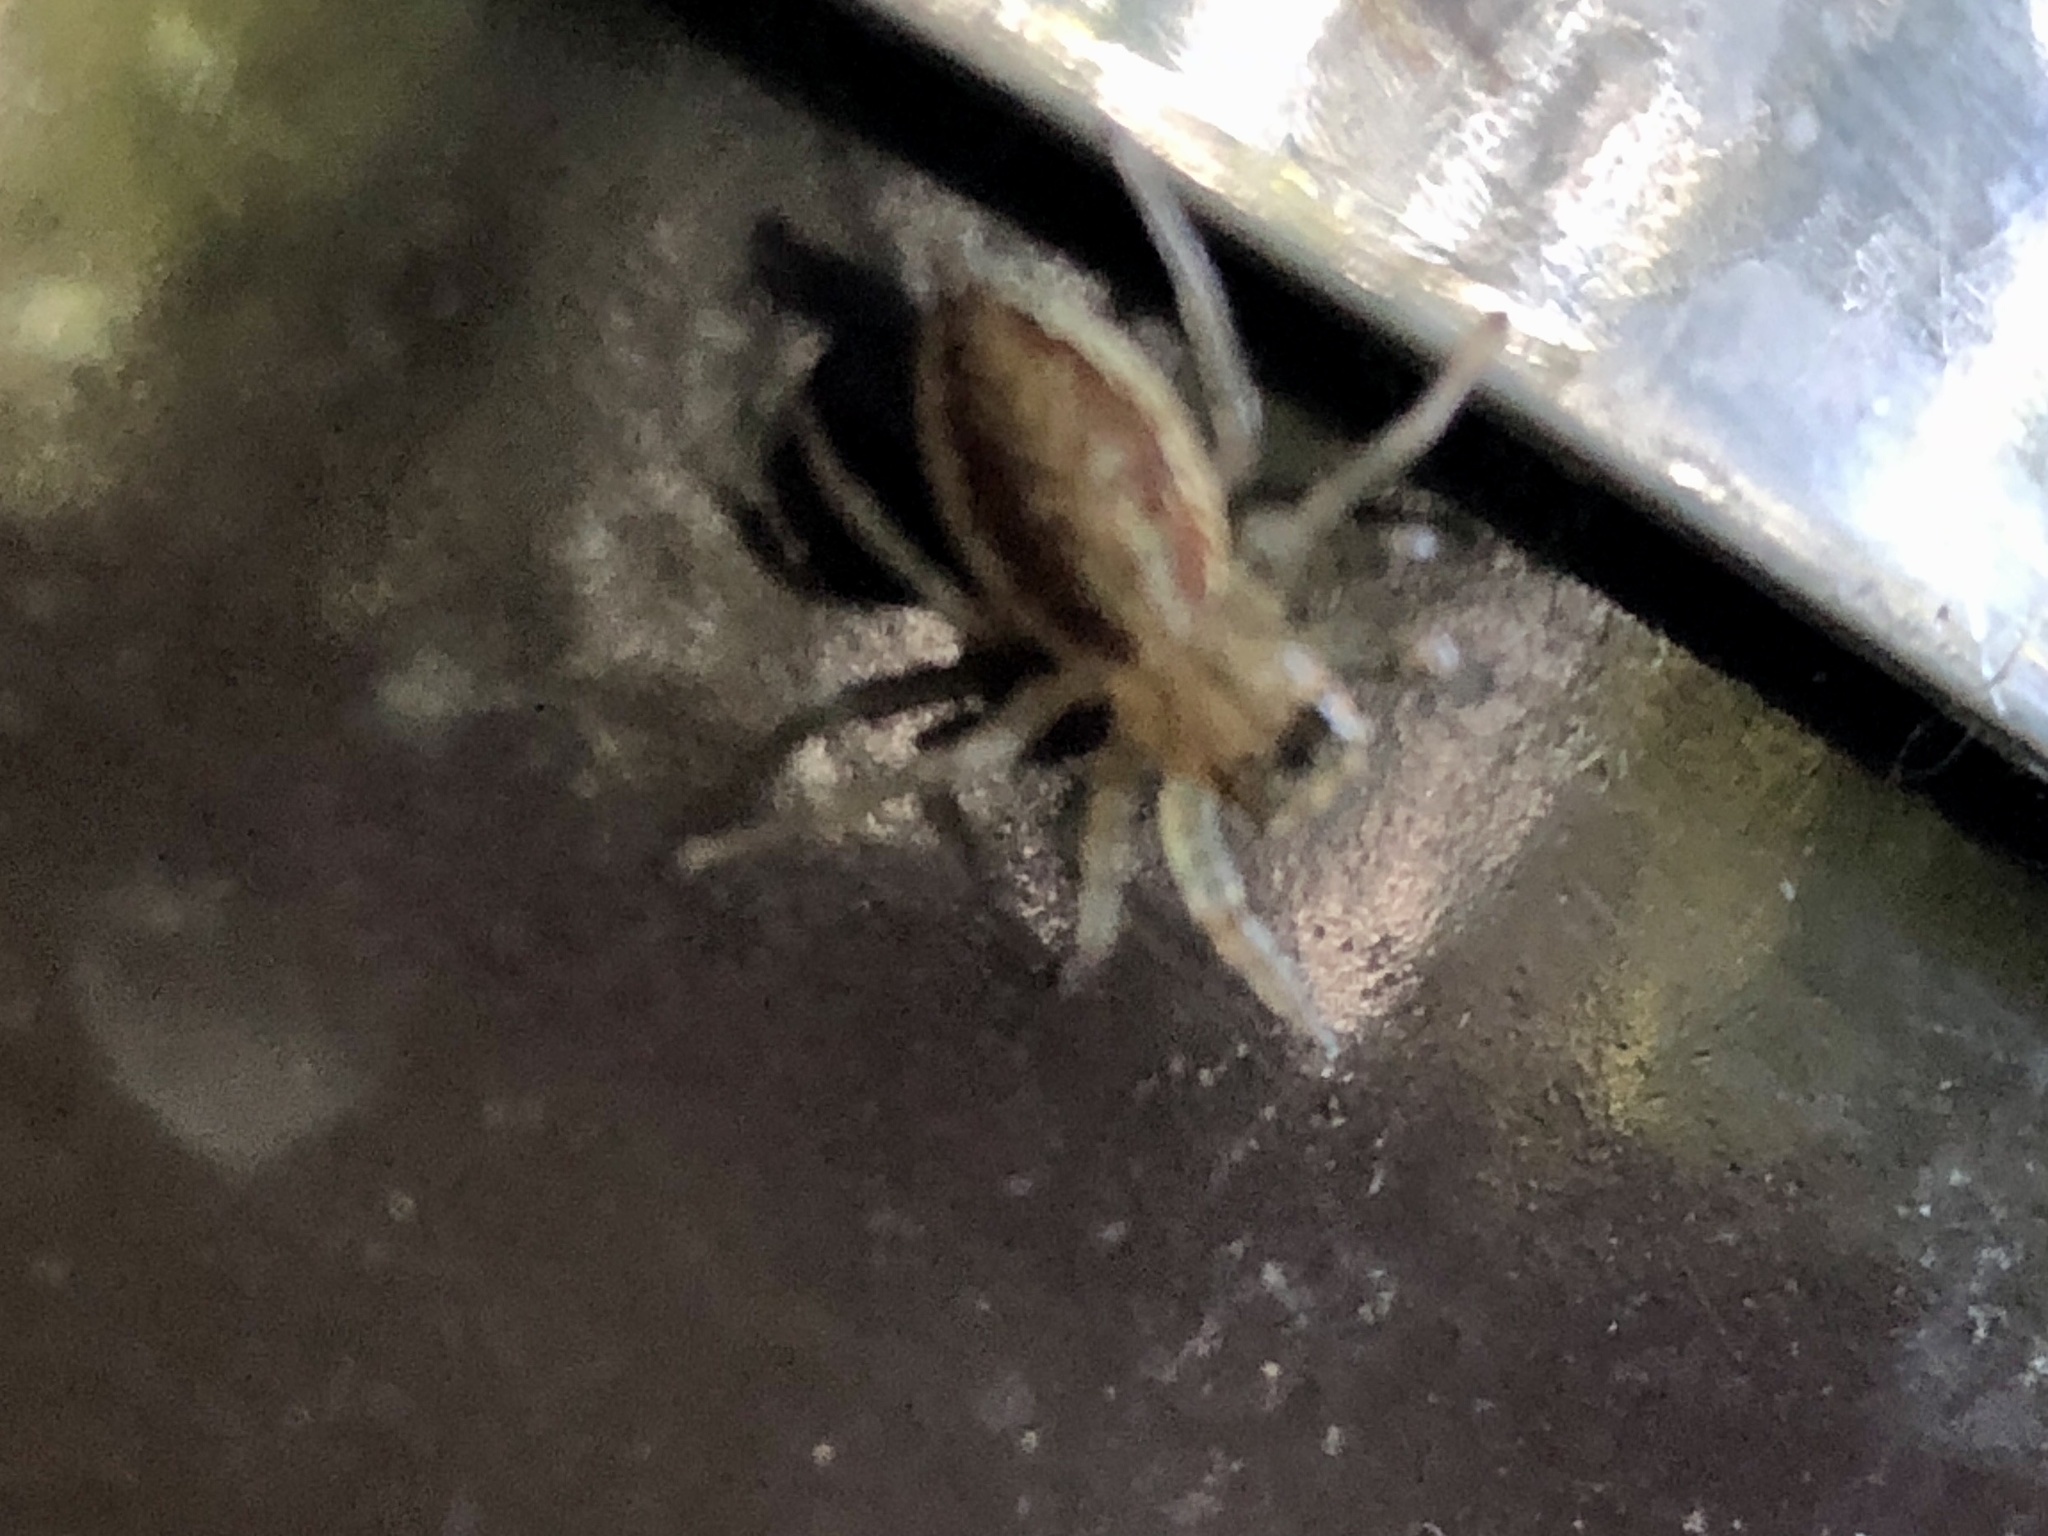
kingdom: Animalia
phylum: Arthropoda
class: Arachnida
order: Araneae
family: Salticidae
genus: Maevia
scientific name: Maevia inclemens
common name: Dimorphic jumper
